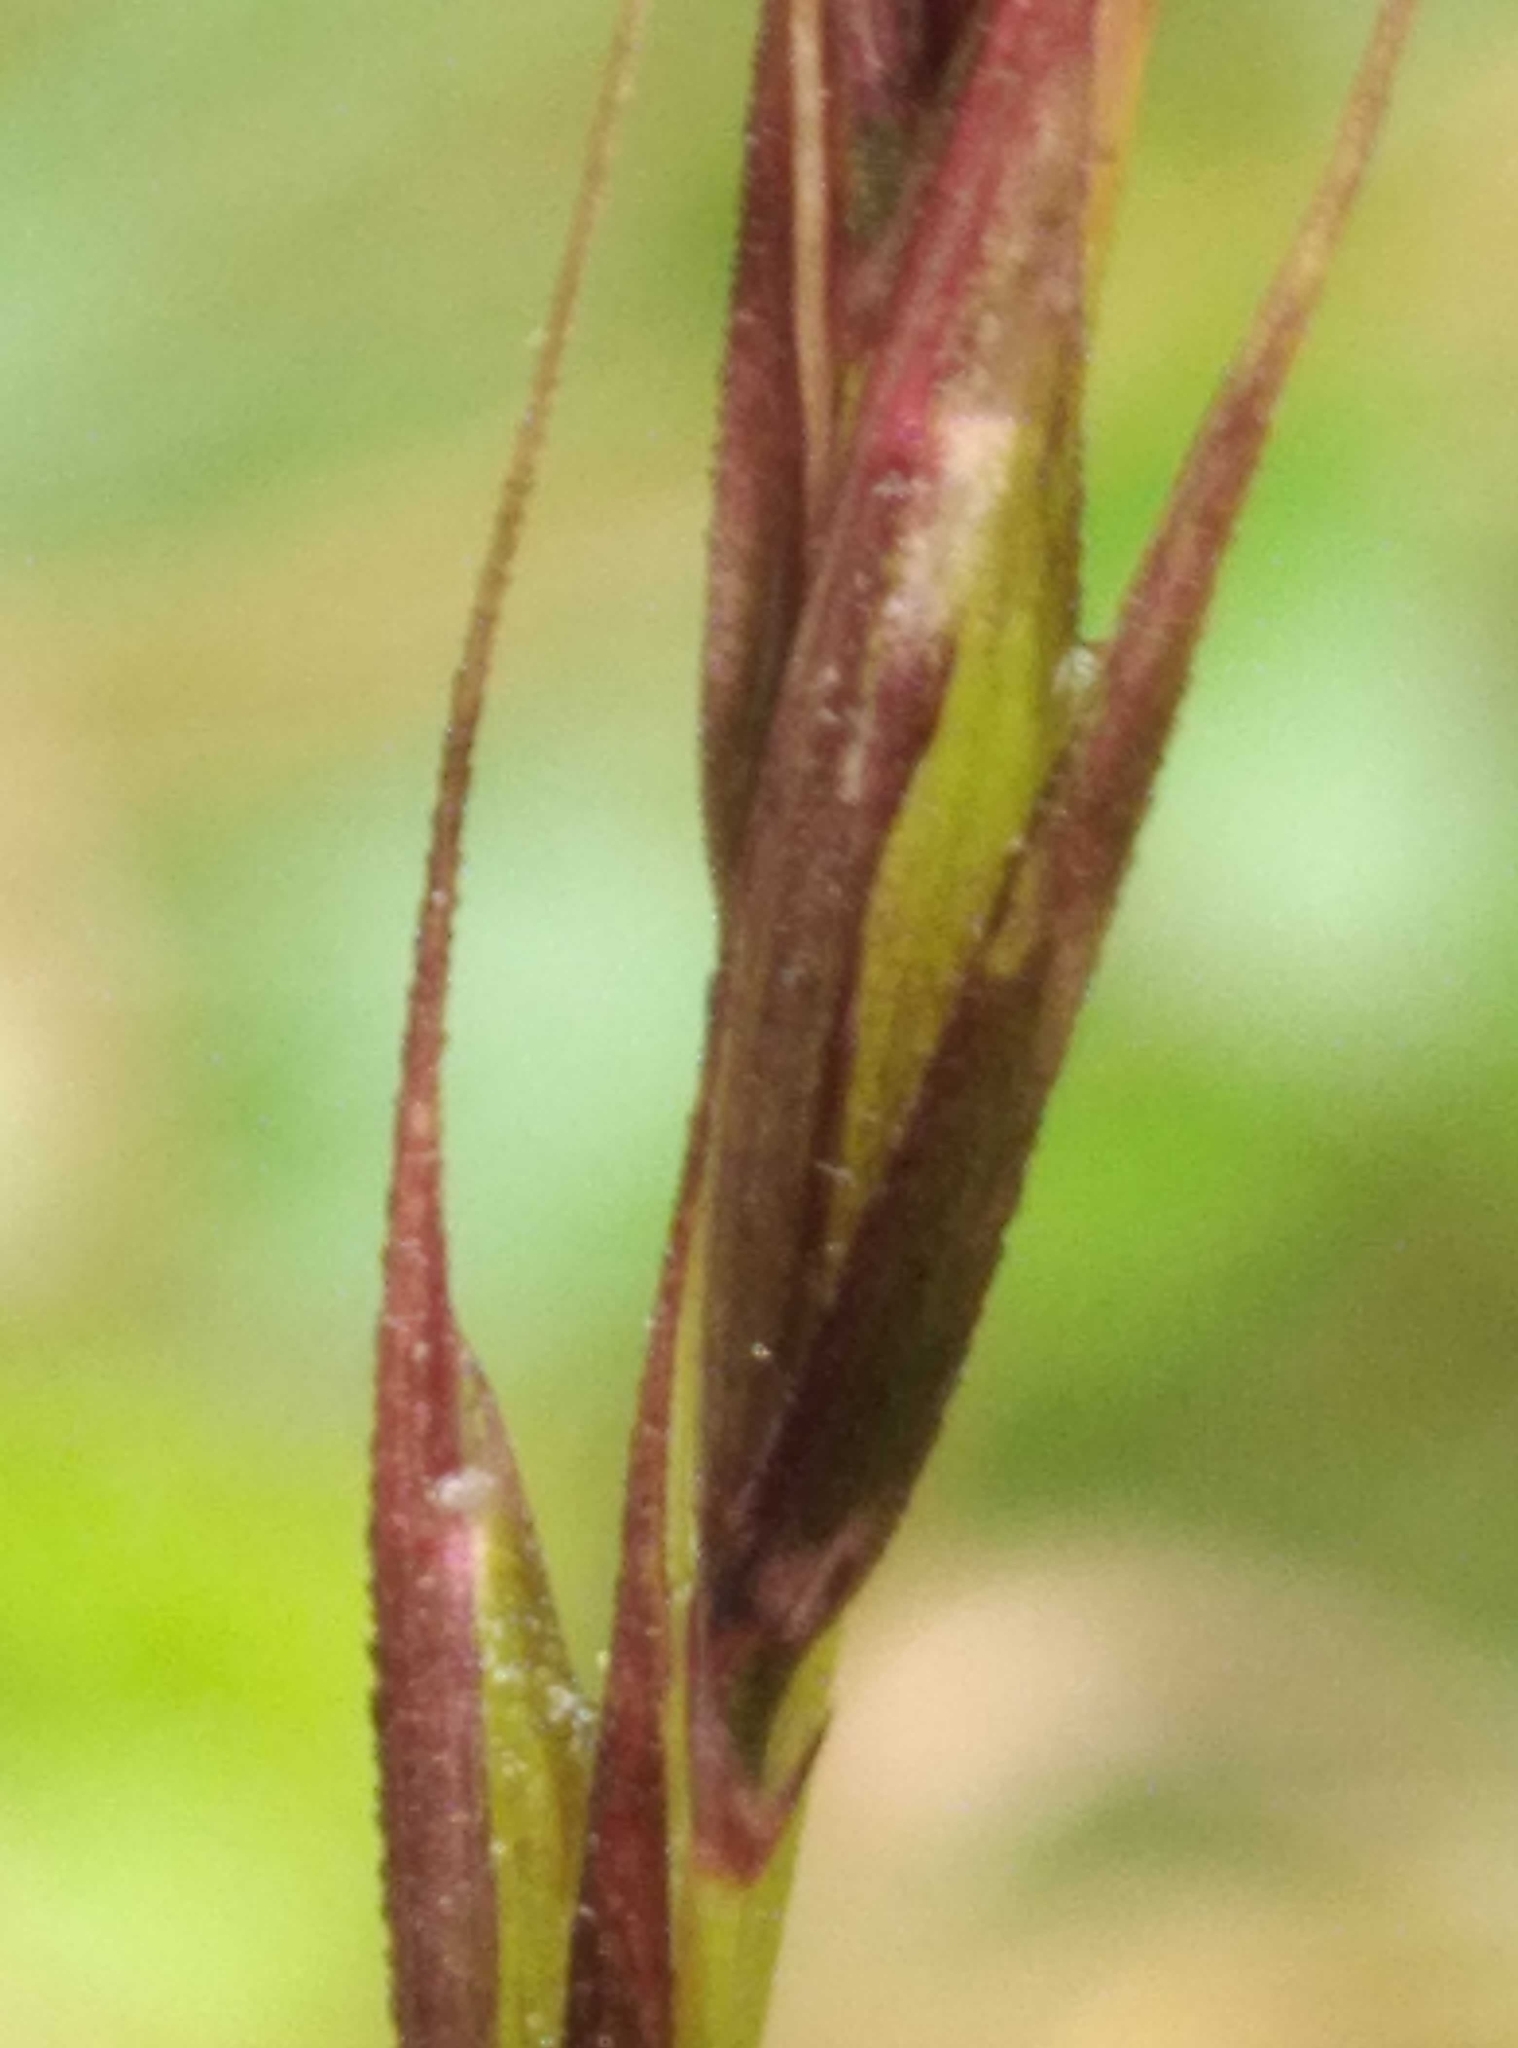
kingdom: Plantae
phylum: Tracheophyta
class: Liliopsida
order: Poales
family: Poaceae
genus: Microlaena
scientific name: Microlaena stipoides
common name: Meadow ricegrass
